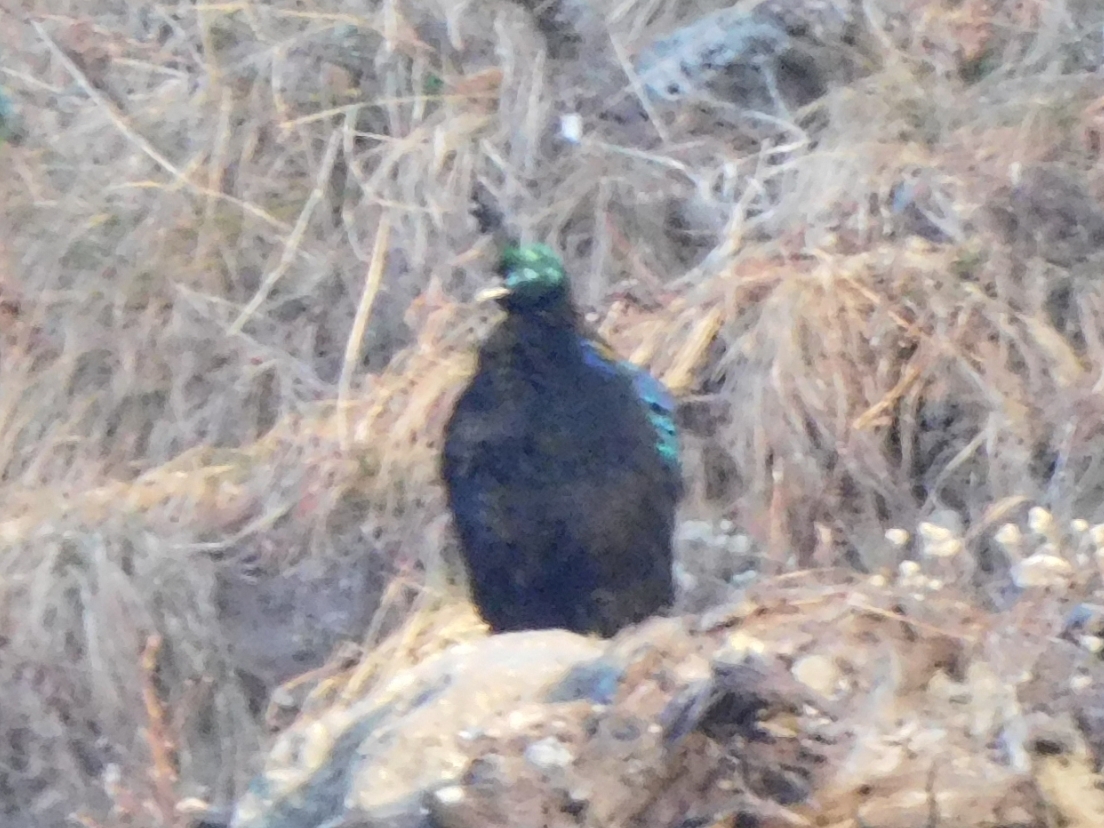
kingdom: Animalia
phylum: Chordata
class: Aves
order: Galliformes
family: Phasianidae
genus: Lophophorus
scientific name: Lophophorus impejanus
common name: Himalayan monal
